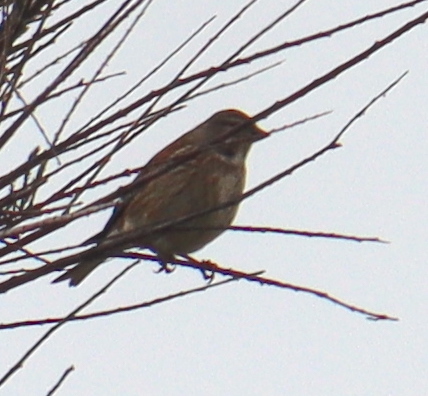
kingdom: Animalia
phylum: Chordata
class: Aves
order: Passeriformes
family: Fringillidae
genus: Linaria
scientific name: Linaria cannabina
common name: Common linnet
